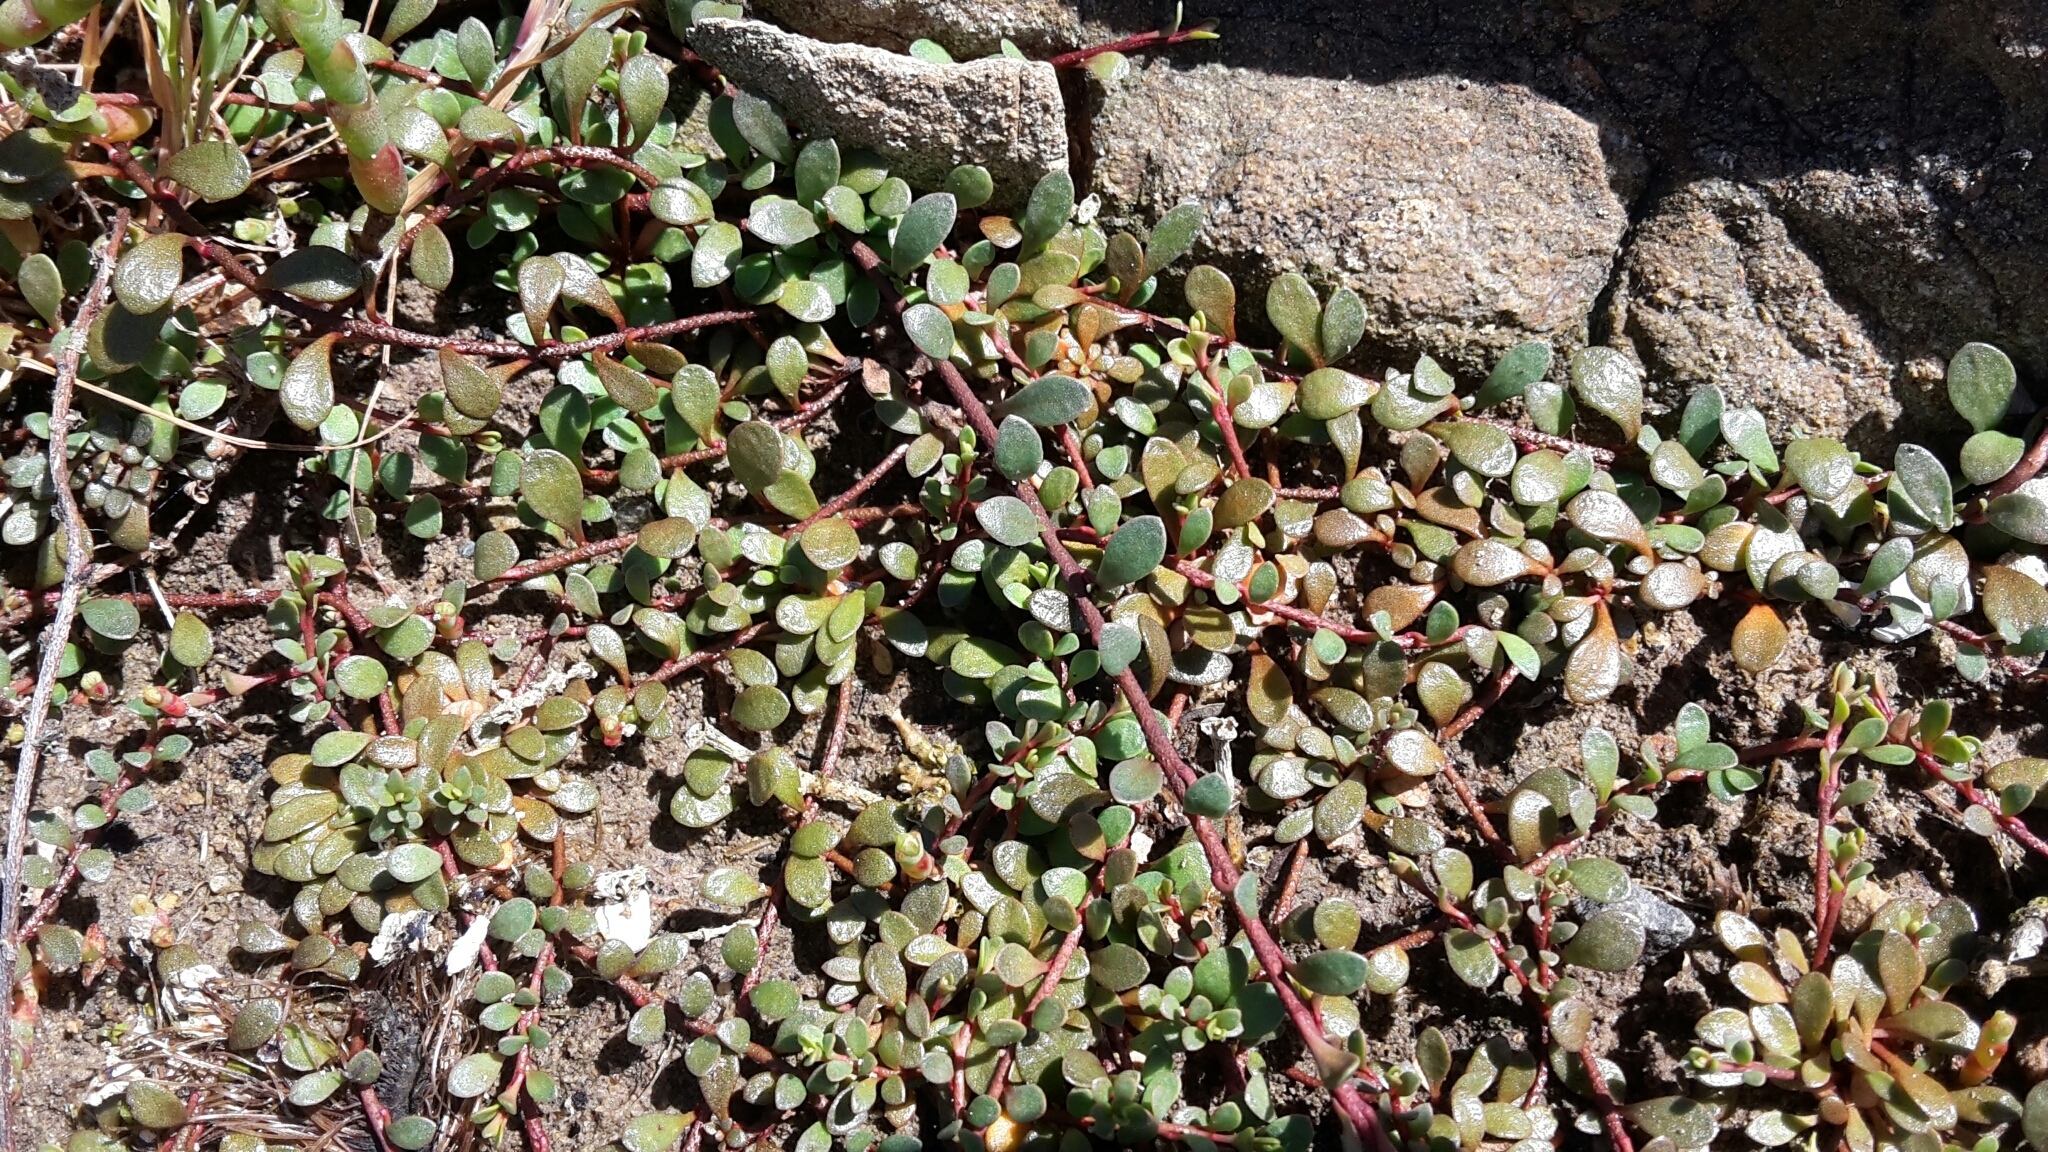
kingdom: Plantae
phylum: Tracheophyta
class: Magnoliopsida
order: Ericales
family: Primulaceae
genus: Samolus
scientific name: Samolus repens
